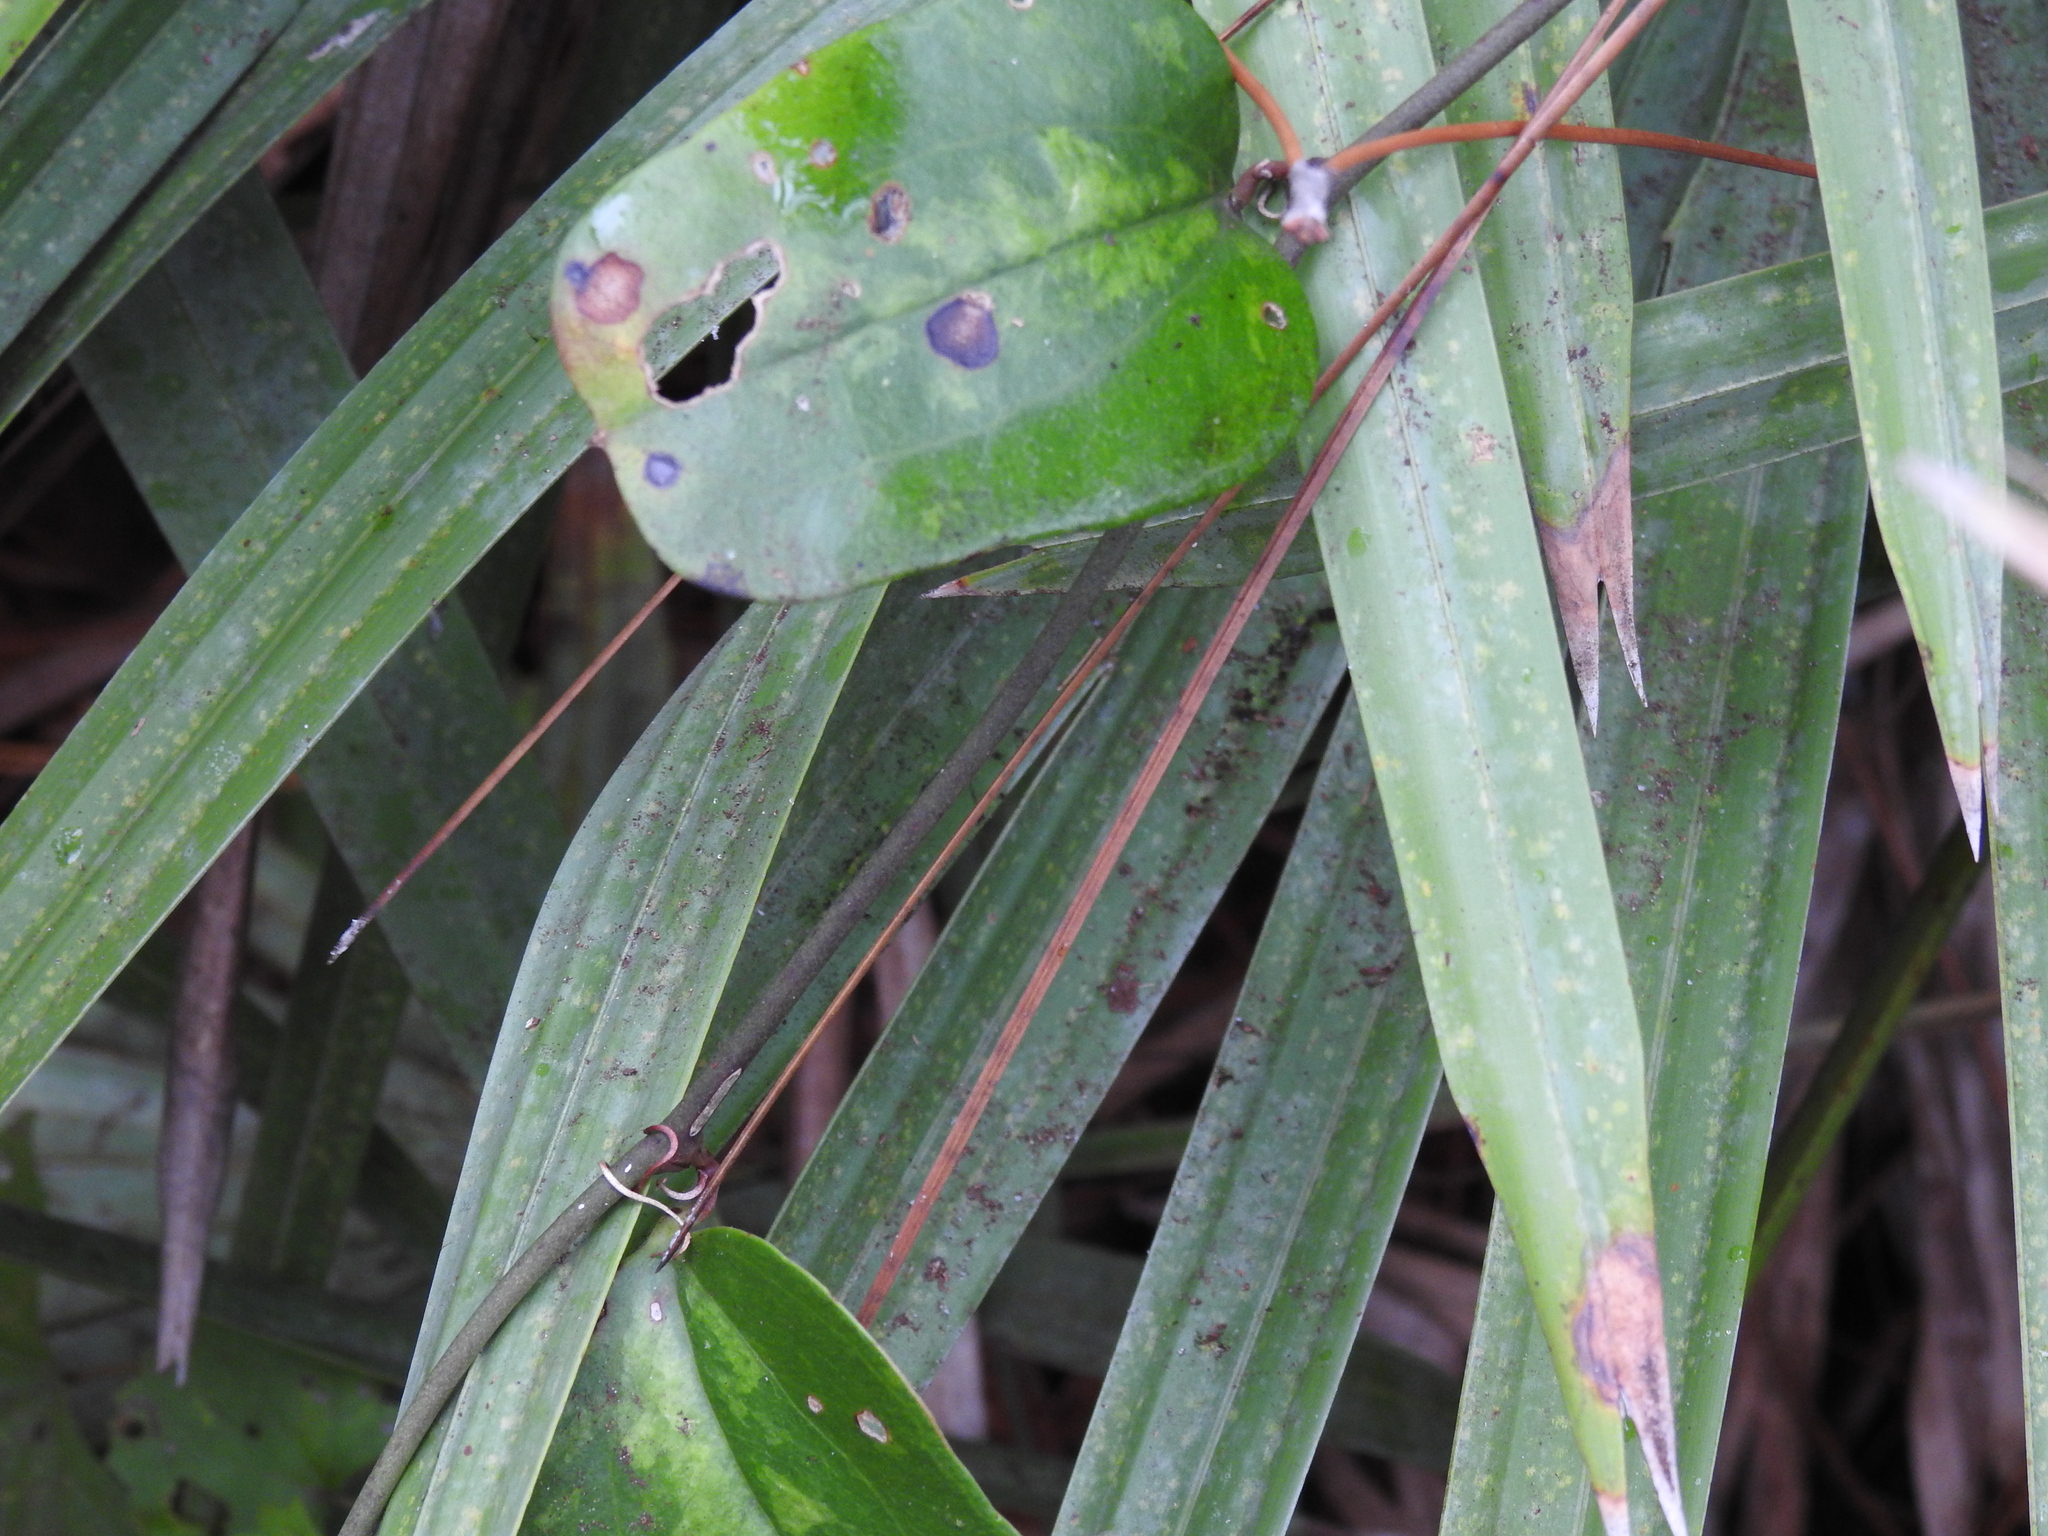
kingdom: Plantae
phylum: Tracheophyta
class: Liliopsida
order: Liliales
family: Smilacaceae
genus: Smilax
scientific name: Smilax auriculata
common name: Wild bamboo
